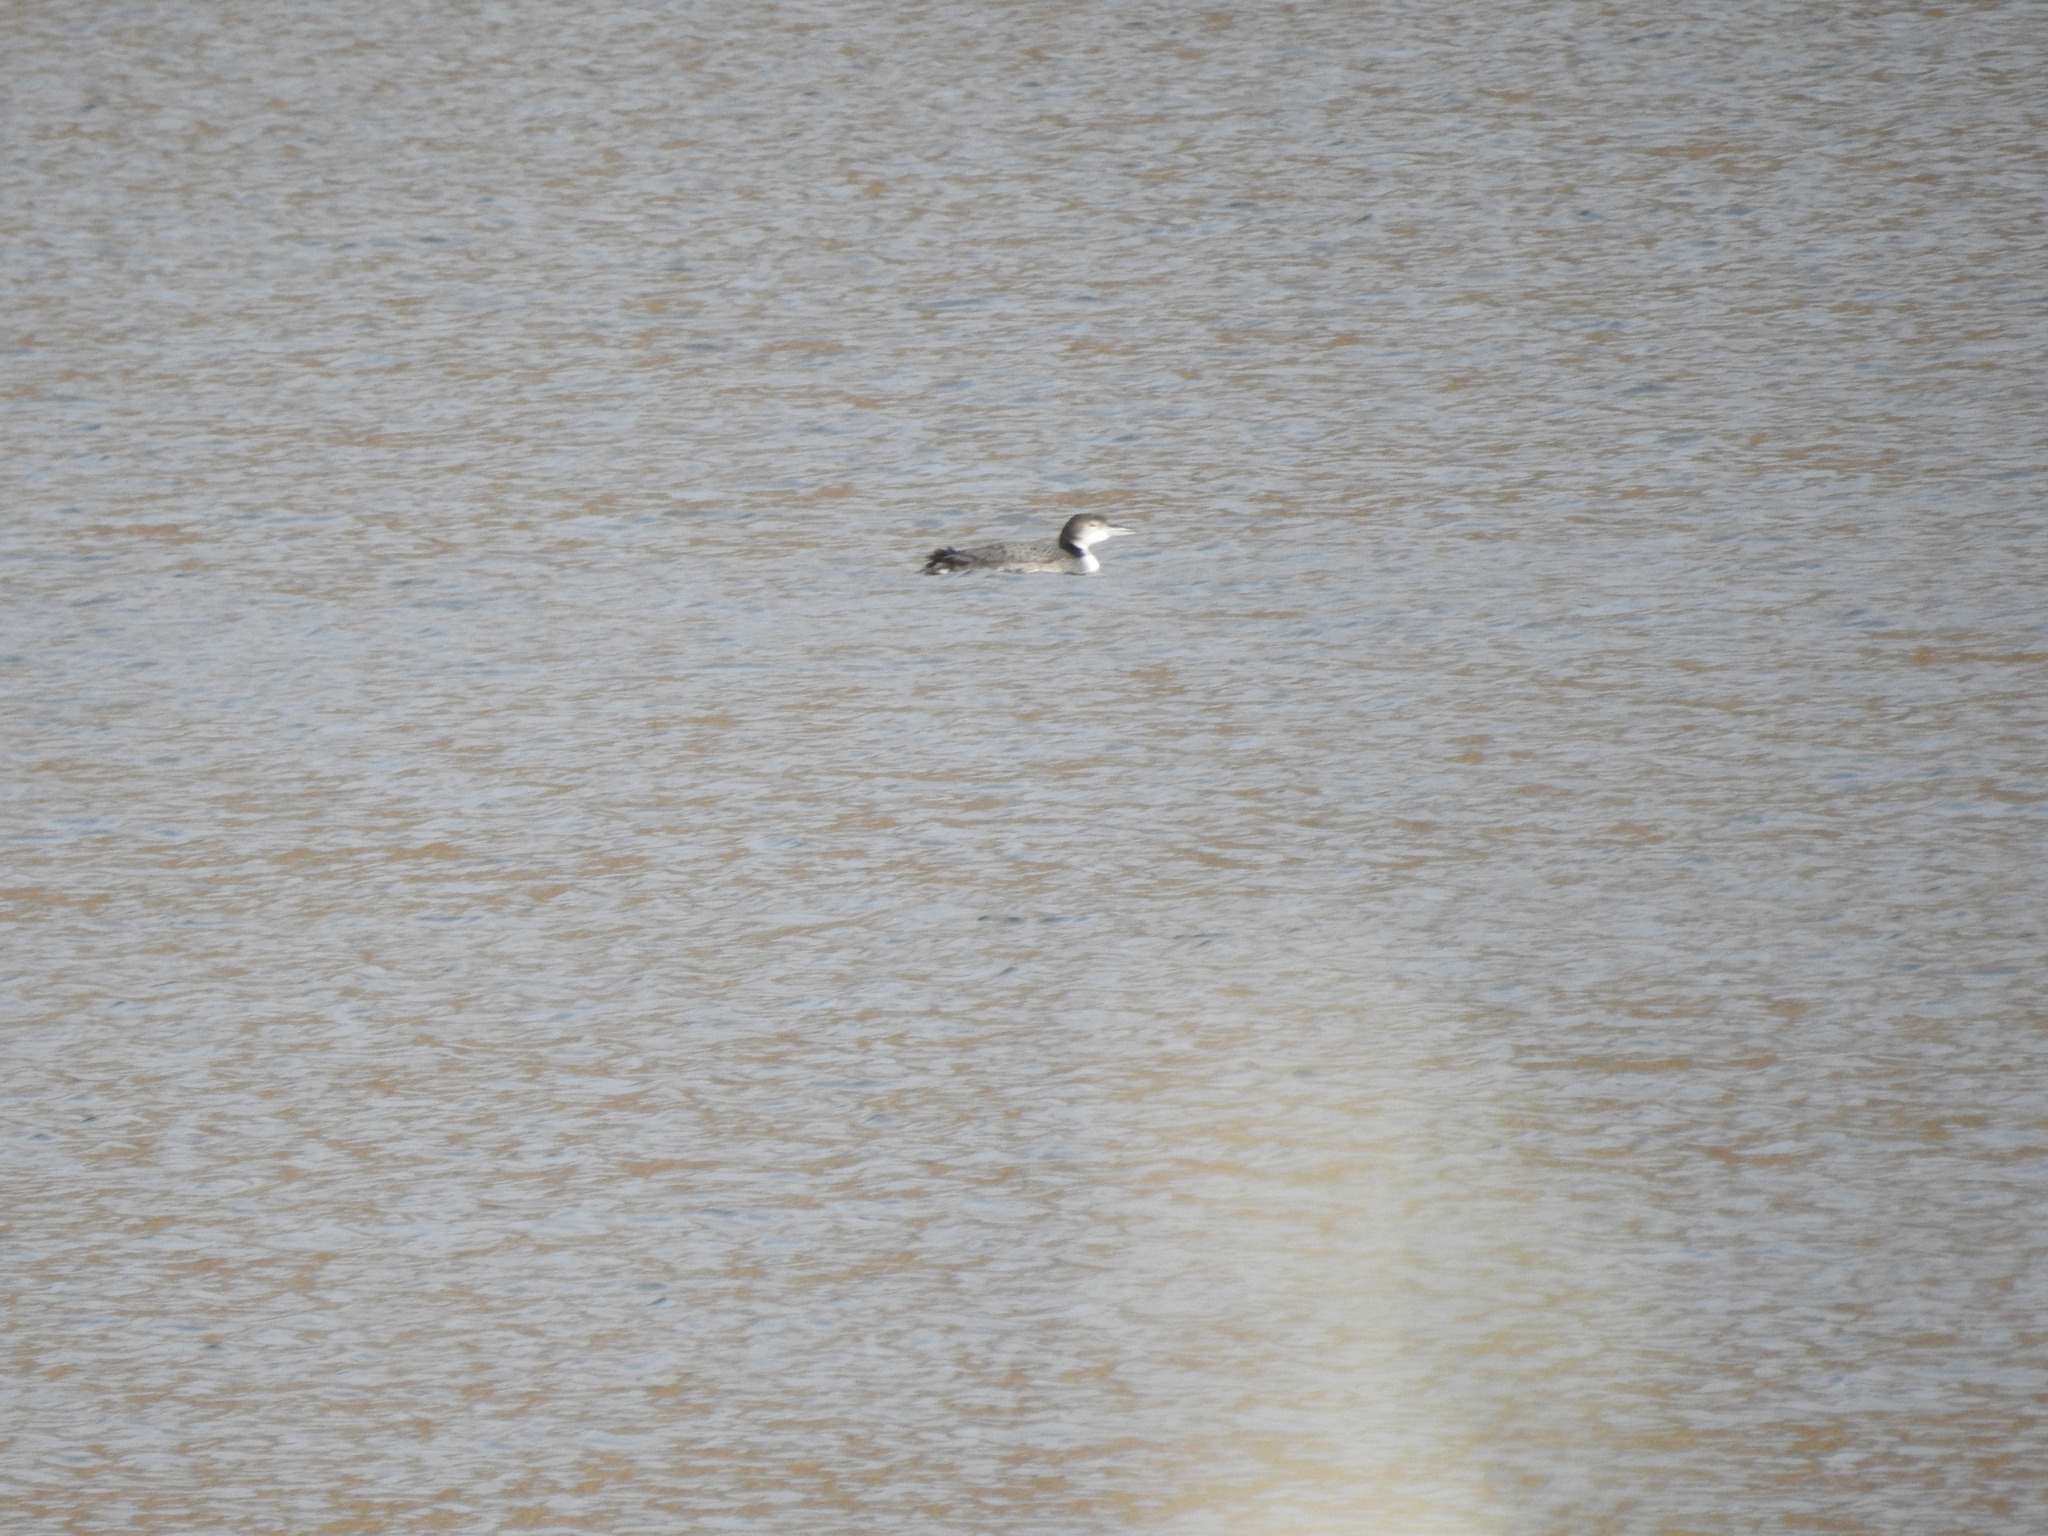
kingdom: Animalia
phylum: Chordata
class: Aves
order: Gaviiformes
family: Gaviidae
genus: Gavia
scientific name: Gavia immer
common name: Common loon
